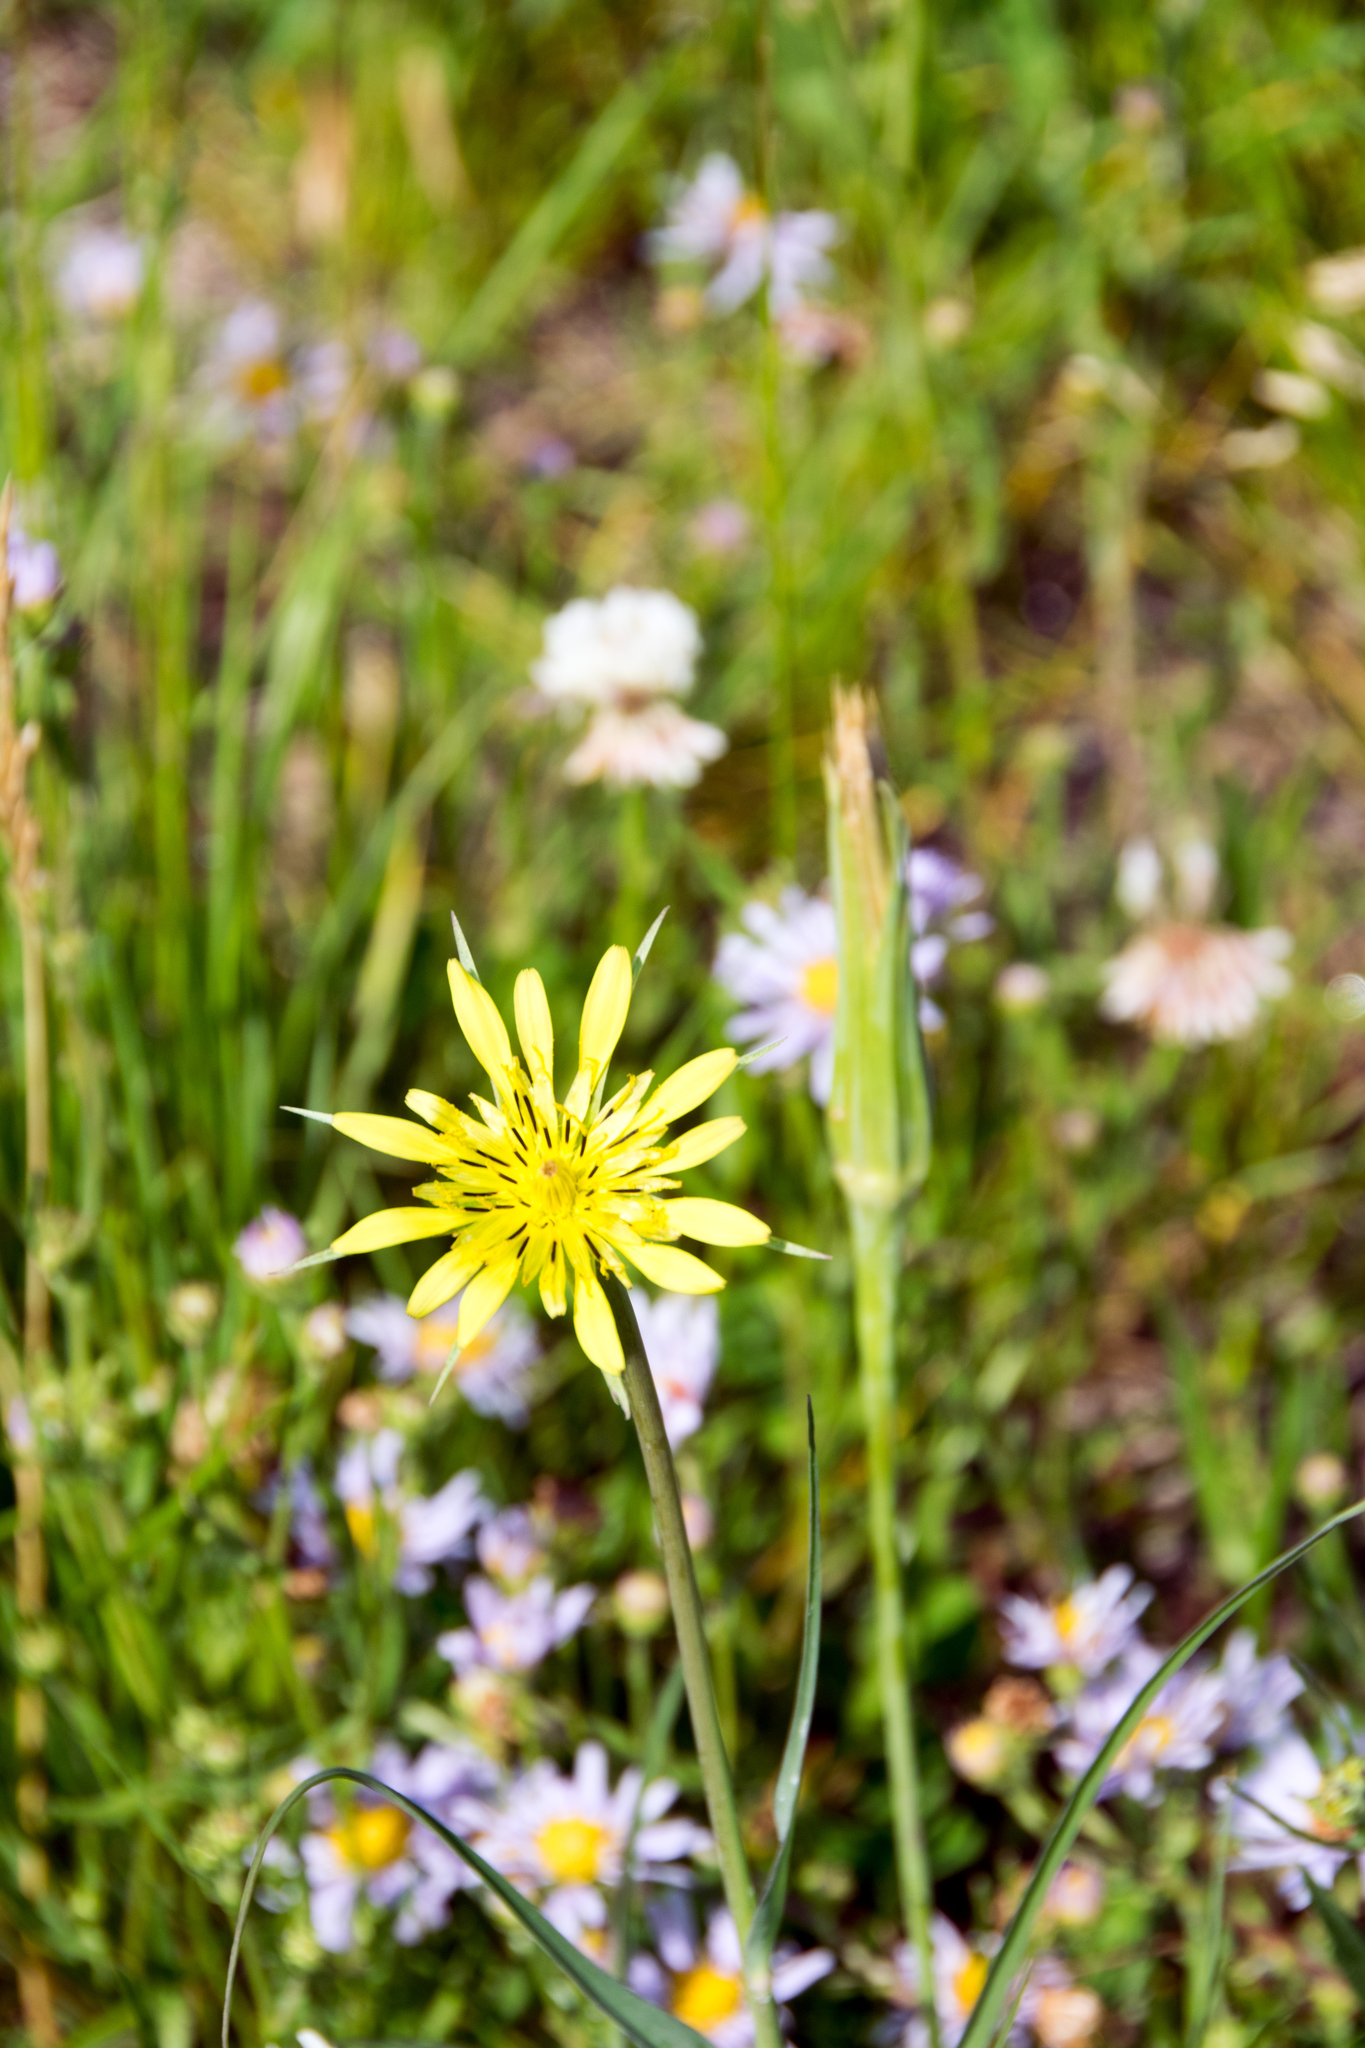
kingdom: Plantae
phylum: Tracheophyta
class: Magnoliopsida
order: Asterales
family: Asteraceae
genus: Tragopogon
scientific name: Tragopogon dubius
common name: Yellow salsify
